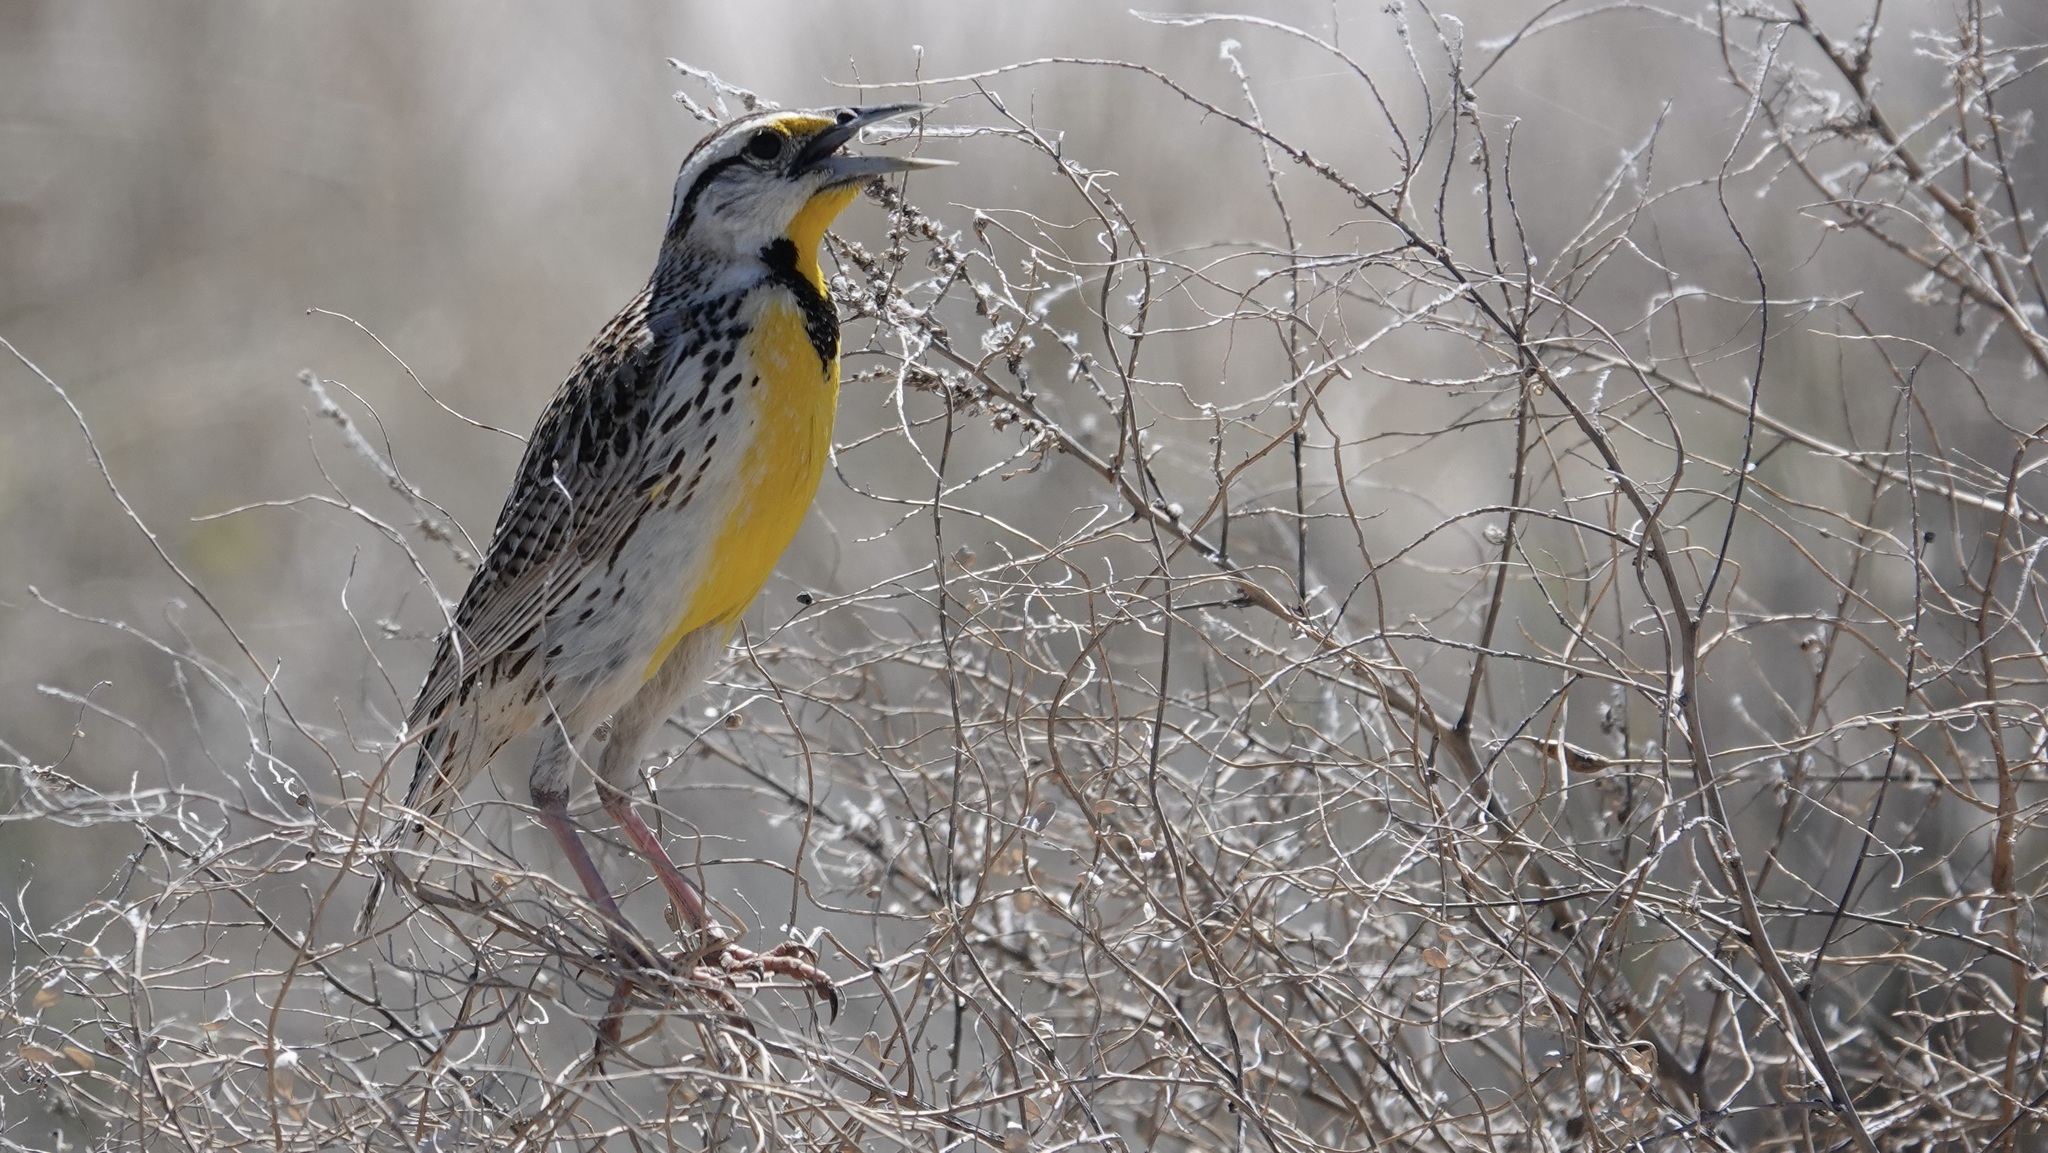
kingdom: Animalia
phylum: Chordata
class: Aves
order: Passeriformes
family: Icteridae
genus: Sturnella
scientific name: Sturnella lilianae
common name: Lilian's meadowlark
